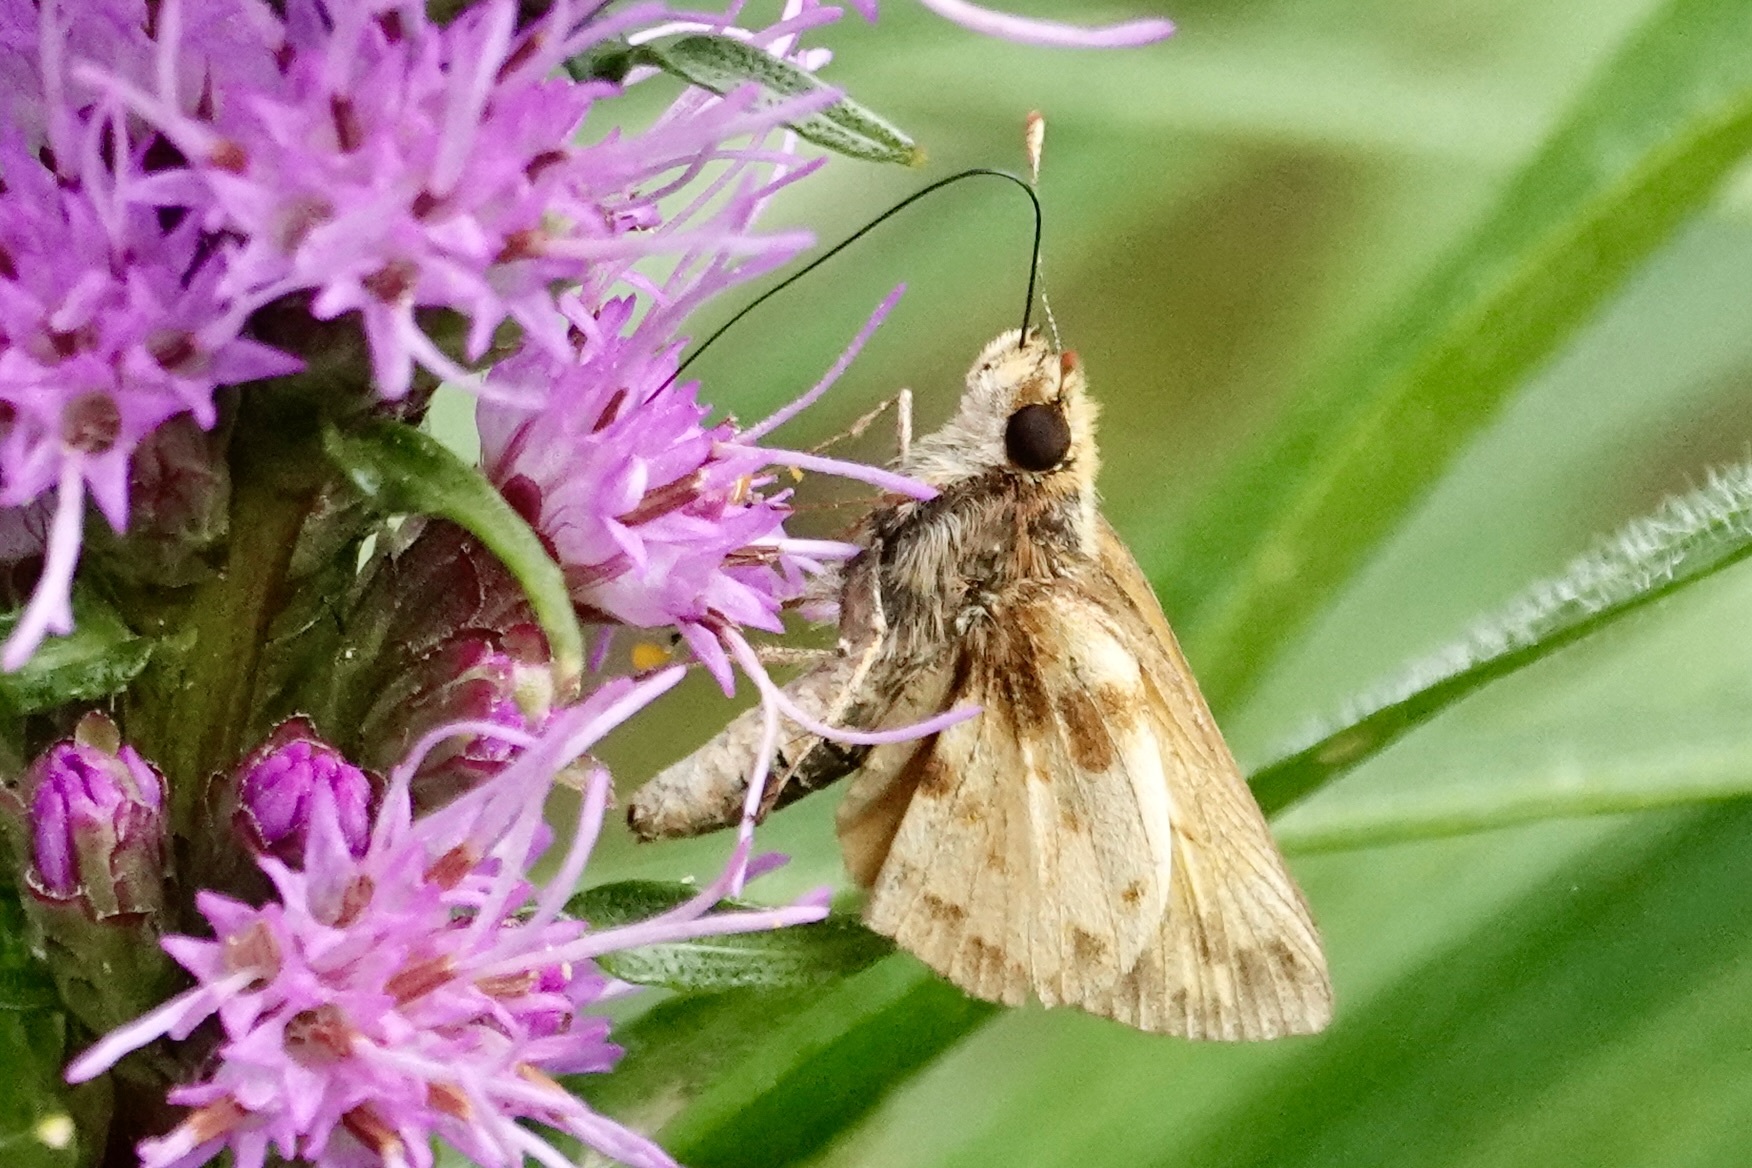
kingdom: Animalia
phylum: Arthropoda
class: Insecta
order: Lepidoptera
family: Hesperiidae
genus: Lon
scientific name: Lon zabulon
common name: Zabulon skipper
